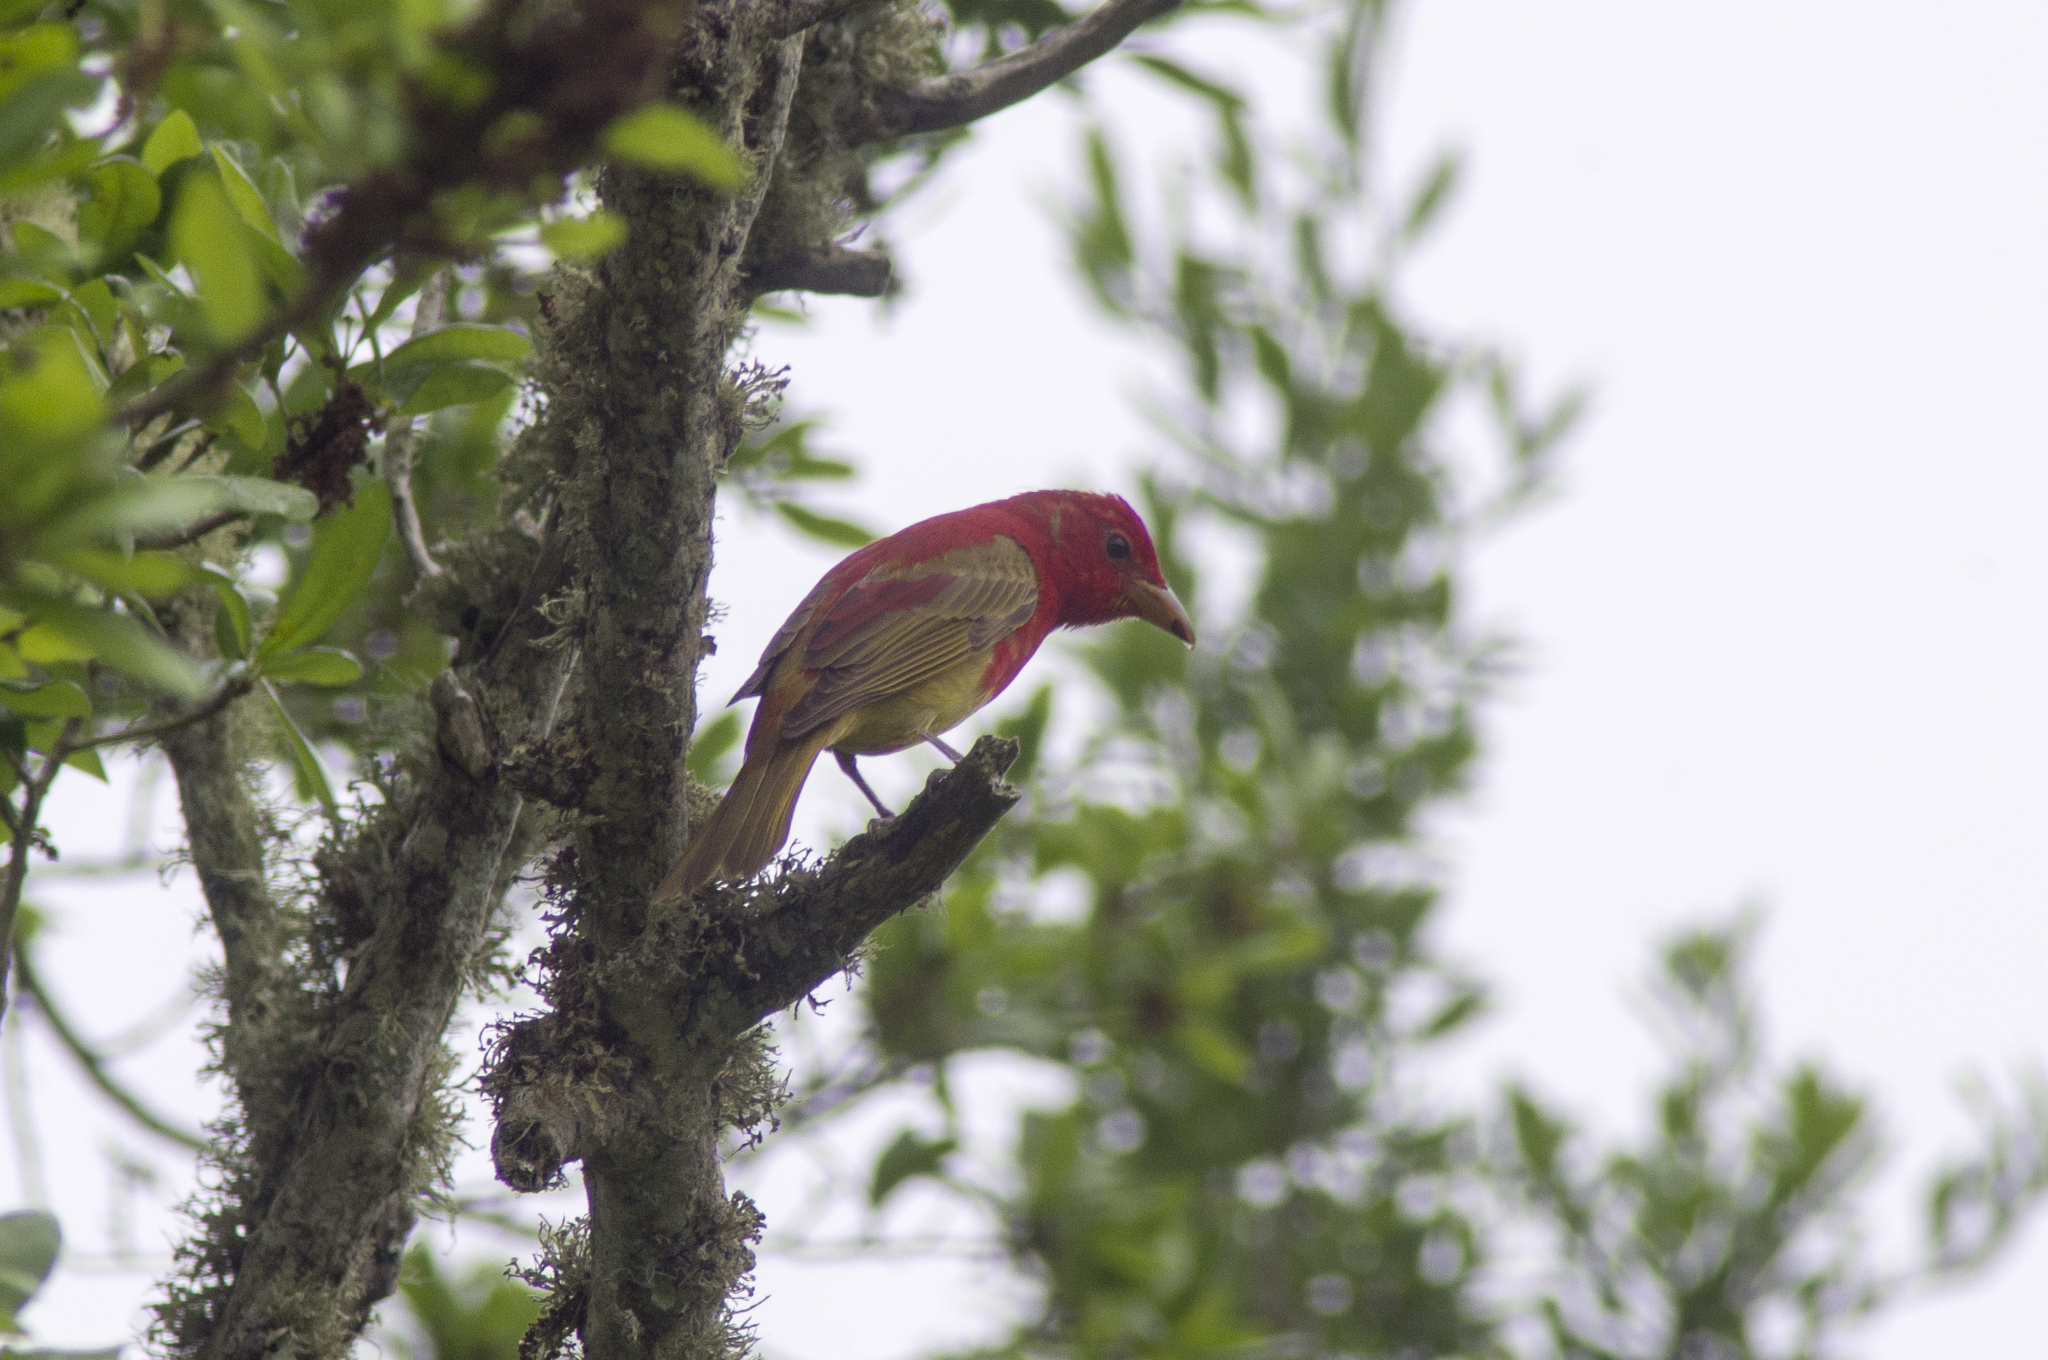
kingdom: Animalia
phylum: Chordata
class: Aves
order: Passeriformes
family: Cardinalidae
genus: Piranga
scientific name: Piranga rubra
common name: Summer tanager
